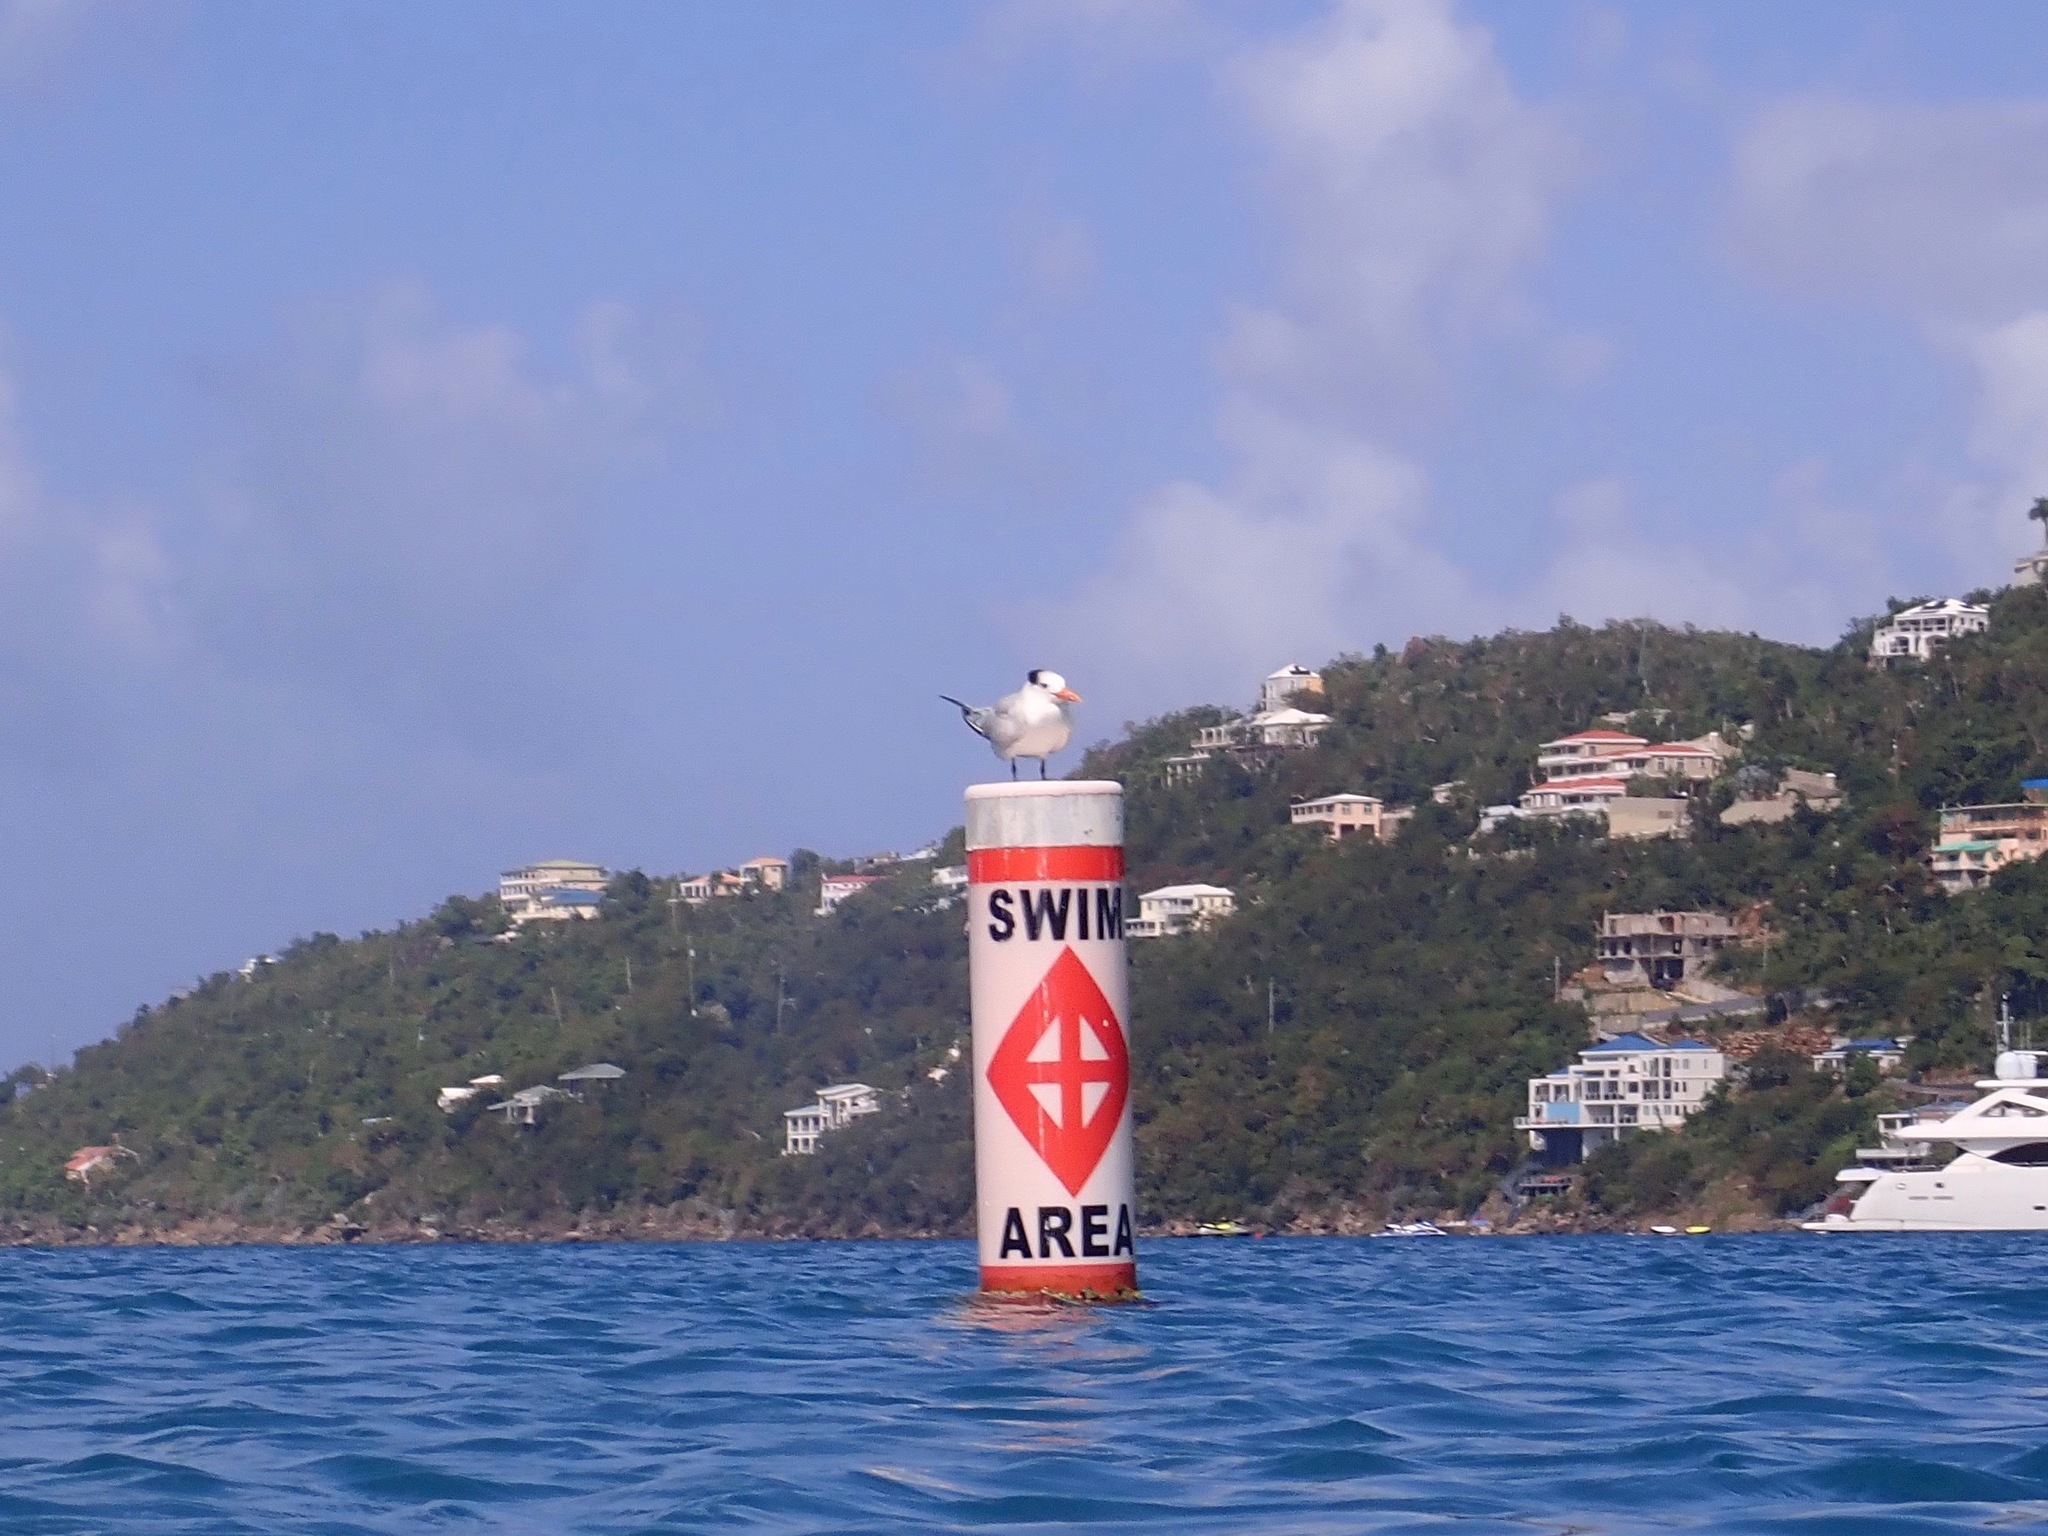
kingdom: Animalia
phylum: Chordata
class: Aves
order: Charadriiformes
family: Laridae
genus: Thalasseus
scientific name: Thalasseus maximus
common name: Royal tern
